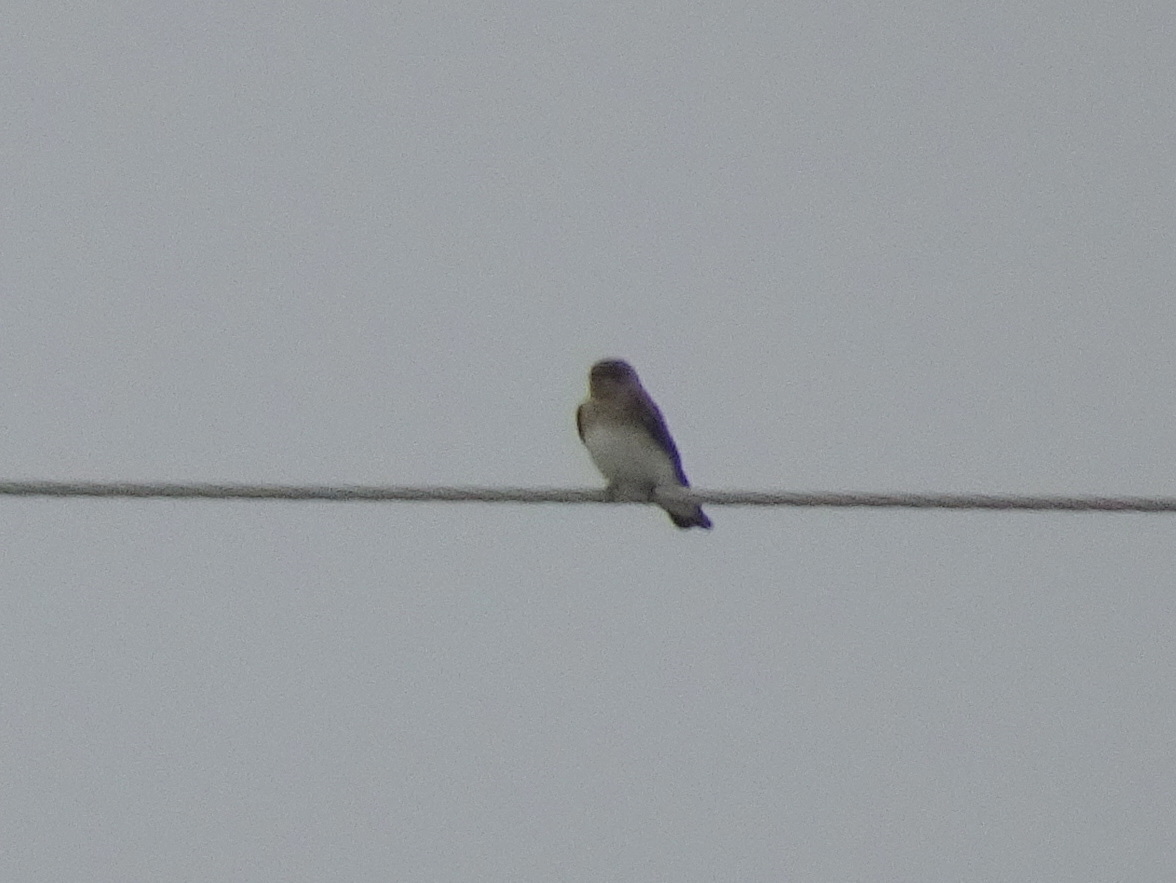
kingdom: Animalia
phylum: Chordata
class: Aves
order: Passeriformes
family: Hirundinidae
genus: Stelgidopteryx
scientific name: Stelgidopteryx serripennis
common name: Northern rough-winged swallow
